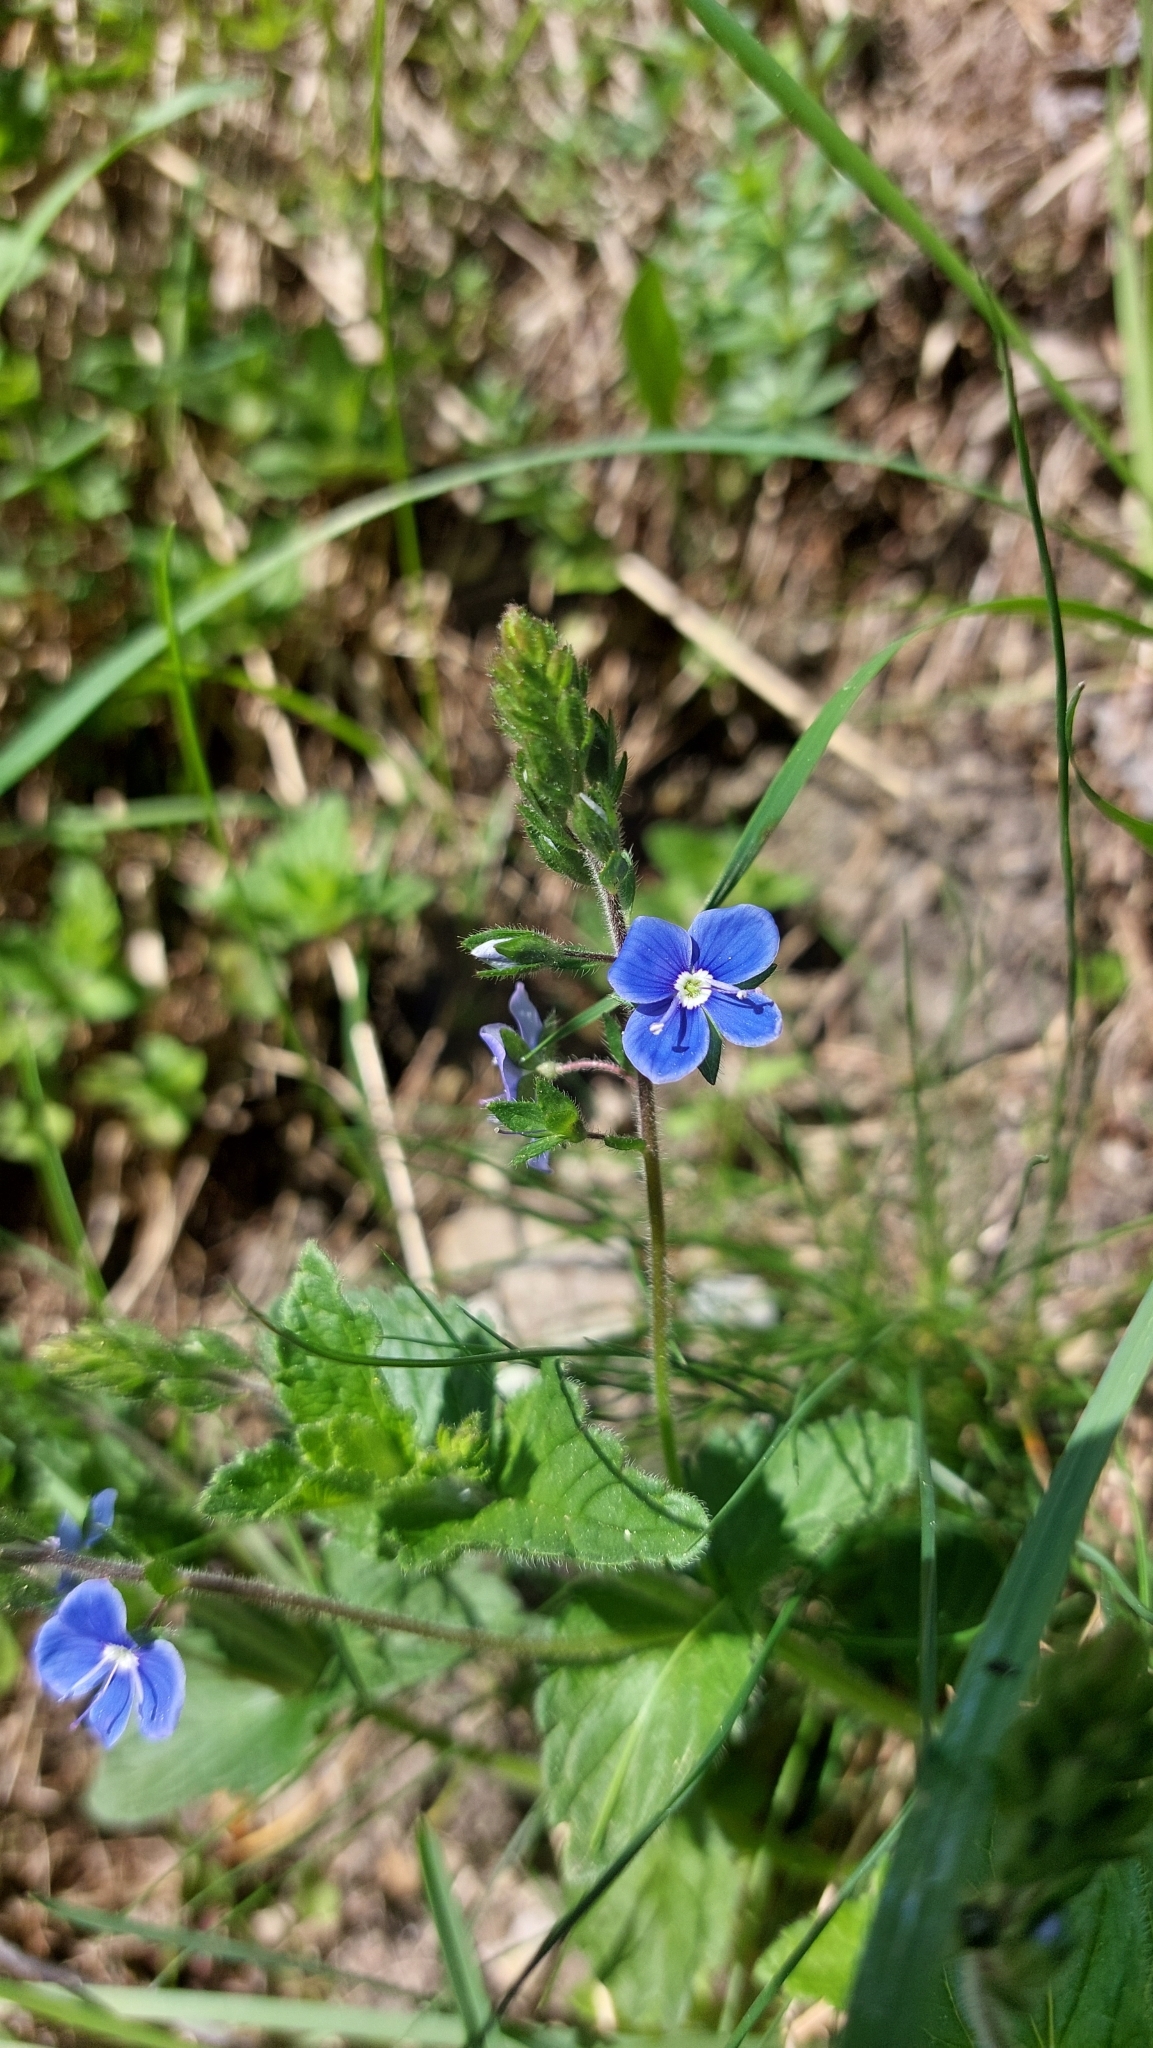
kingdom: Plantae
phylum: Tracheophyta
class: Magnoliopsida
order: Lamiales
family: Plantaginaceae
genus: Veronica
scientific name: Veronica chamaedrys
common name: Germander speedwell
